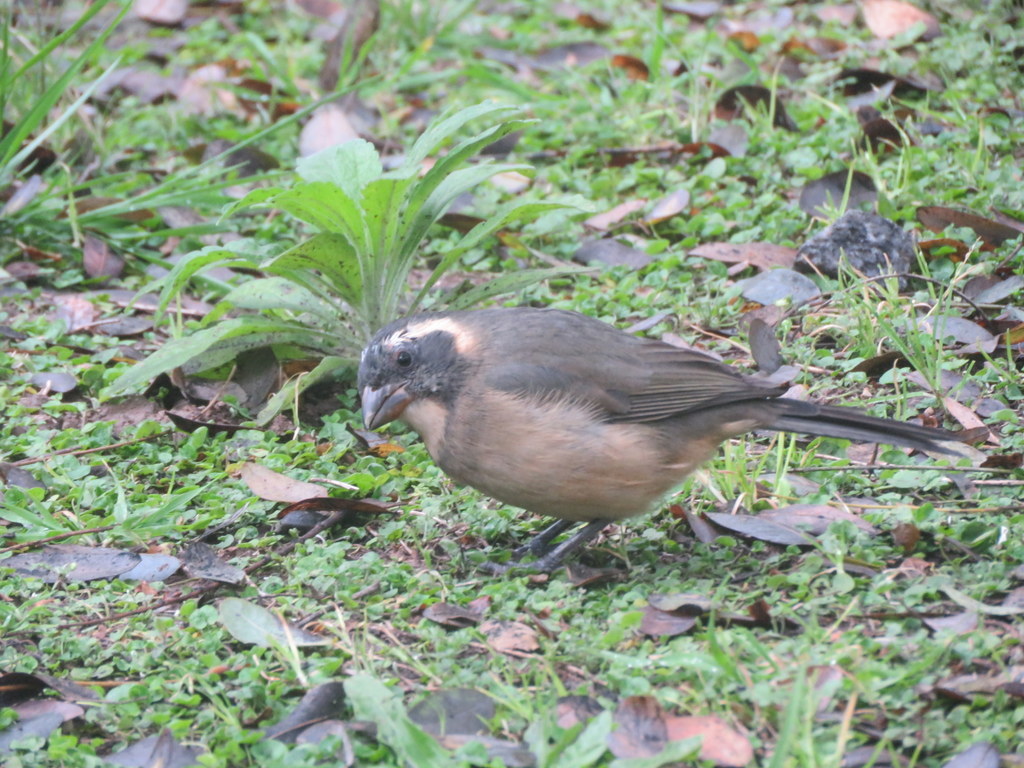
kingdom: Animalia
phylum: Chordata
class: Aves
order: Passeriformes
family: Thraupidae
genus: Saltator
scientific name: Saltator aurantiirostris
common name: Golden-billed saltator
